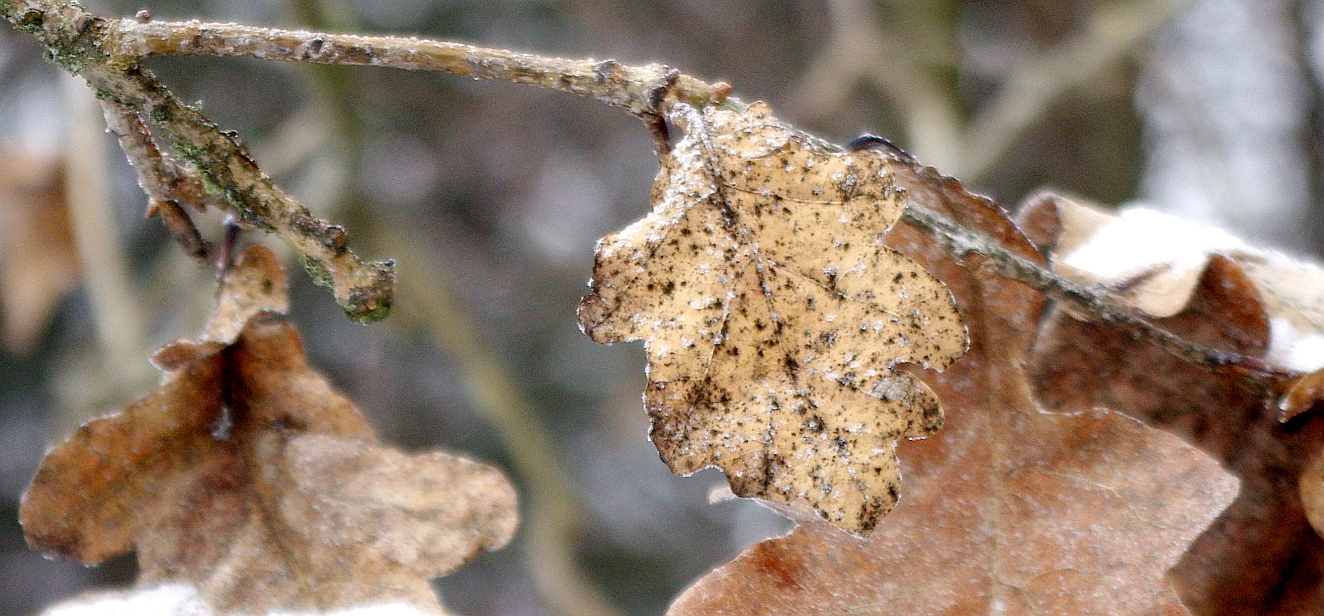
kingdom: Fungi
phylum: Ascomycota
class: Leotiomycetes
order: Helotiales
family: Erysiphaceae
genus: Erysiphe
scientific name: Erysiphe alphitoides
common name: Oak mildew
